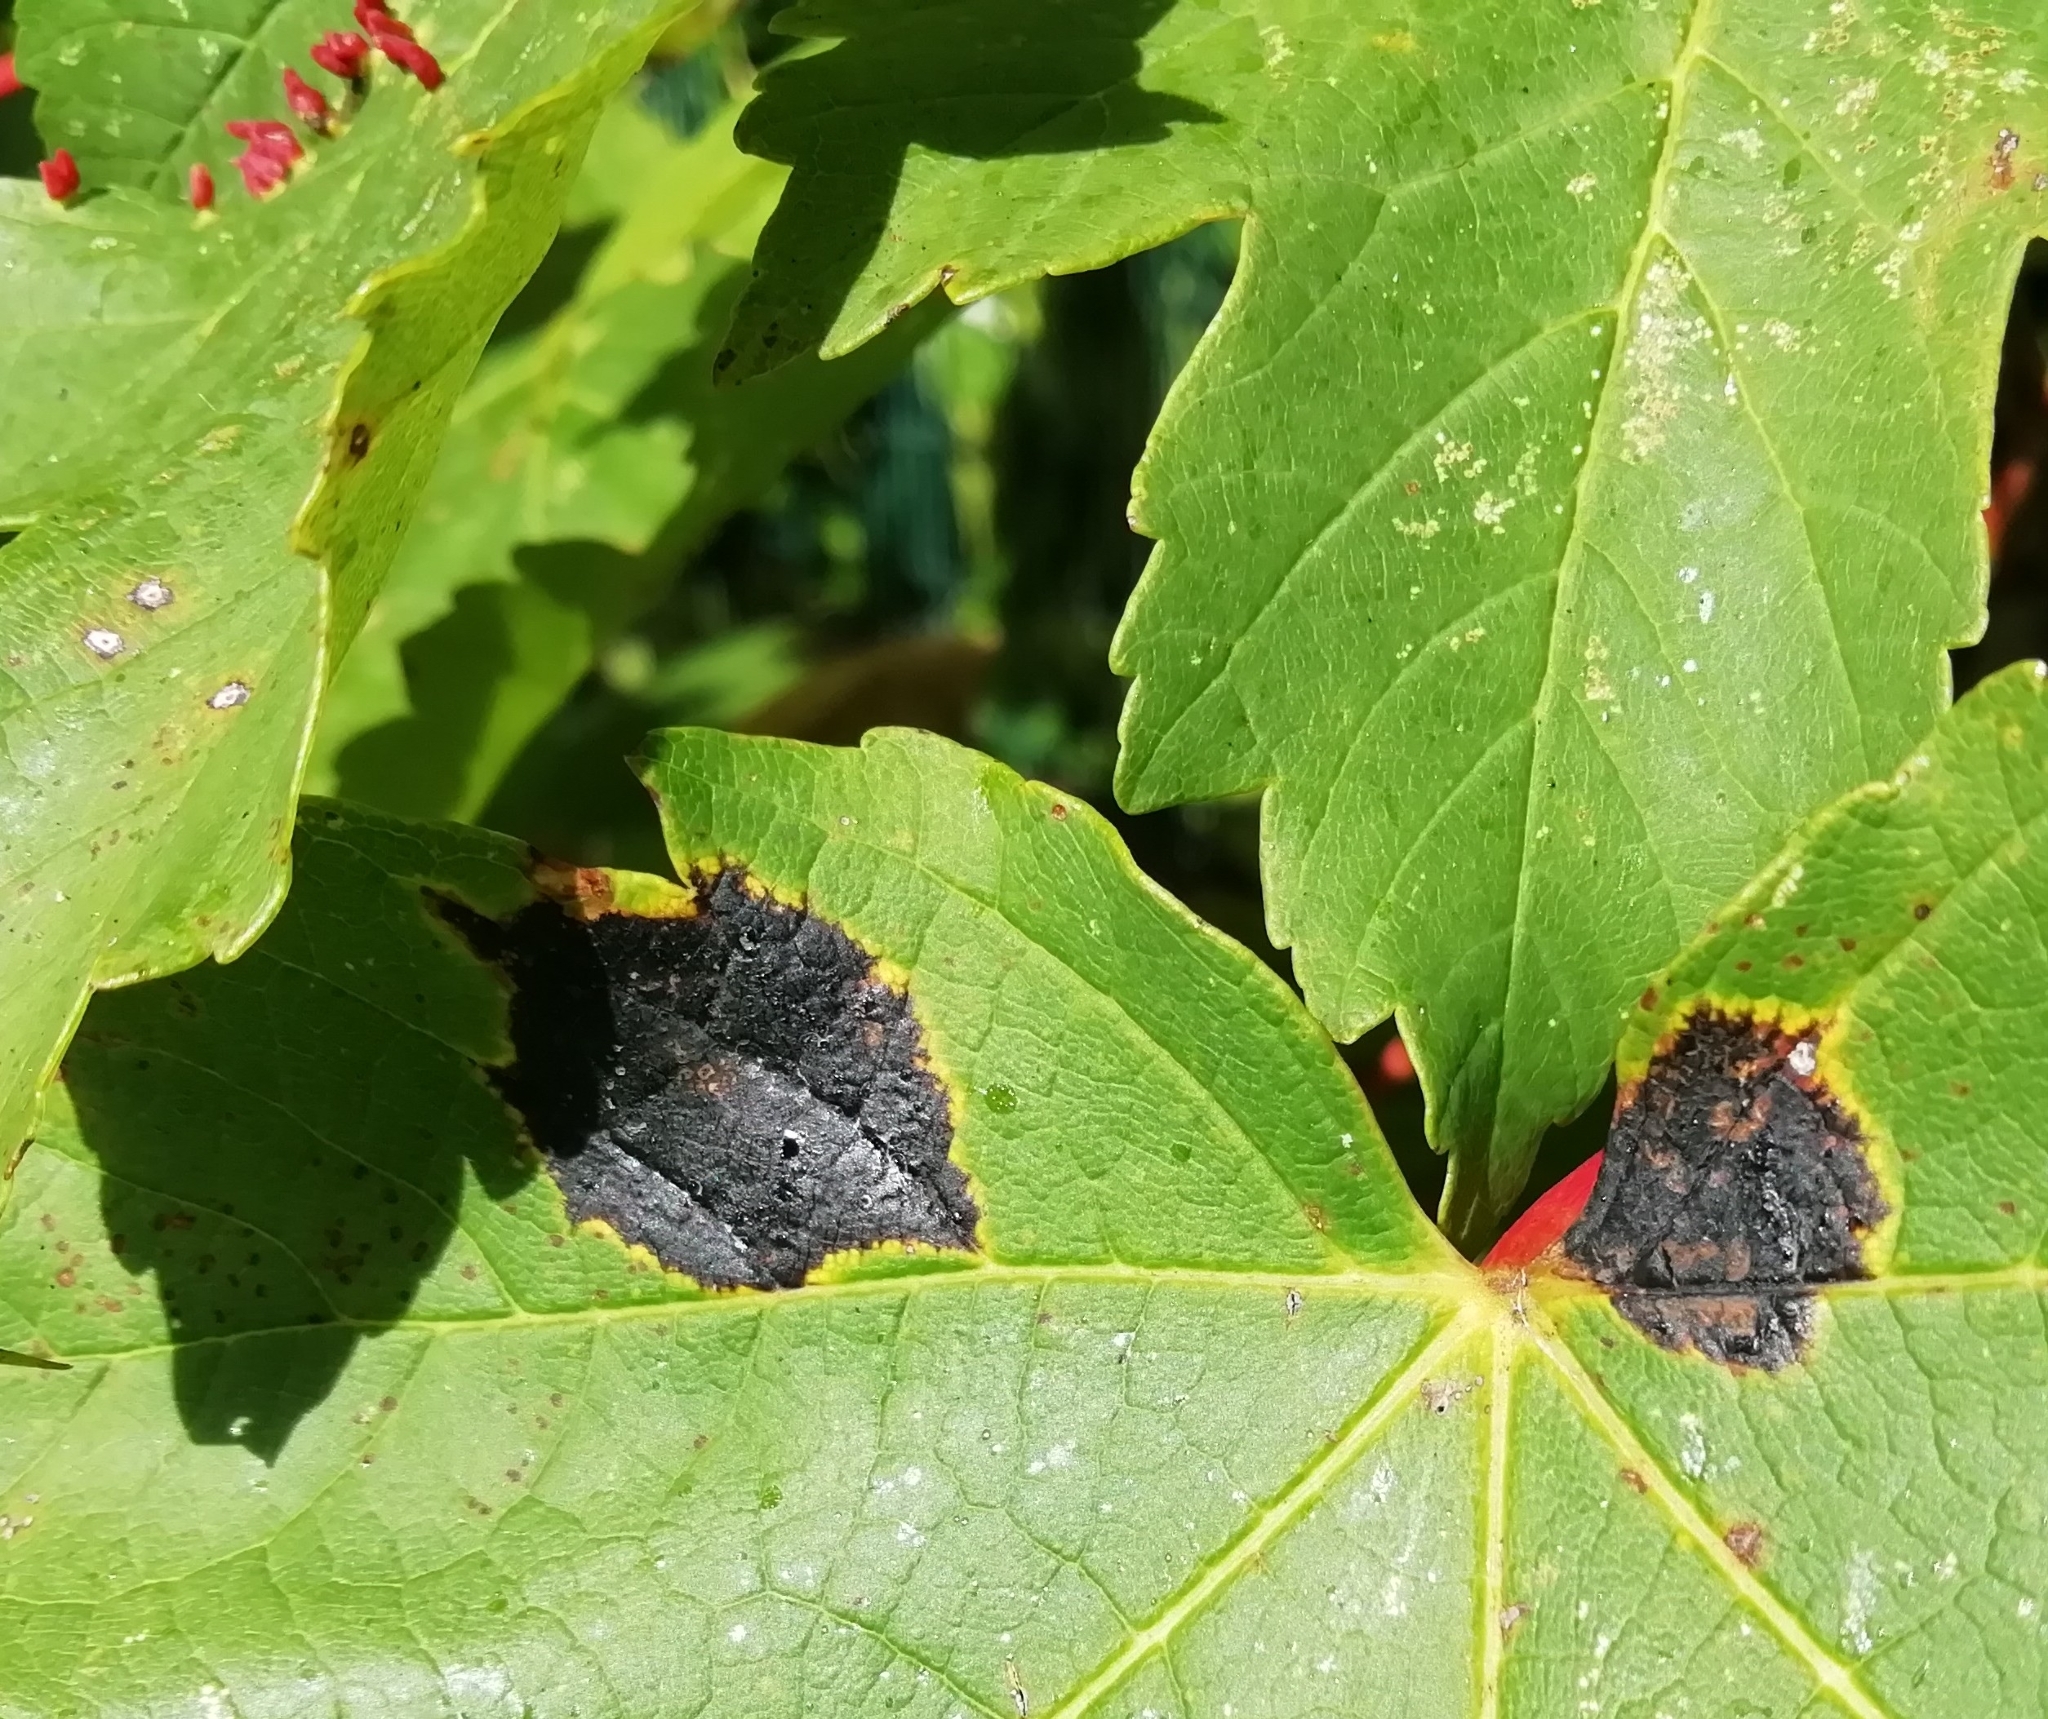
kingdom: Fungi
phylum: Ascomycota
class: Leotiomycetes
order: Rhytismatales
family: Rhytismataceae
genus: Rhytisma
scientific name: Rhytisma acerinum
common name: European tar spot
